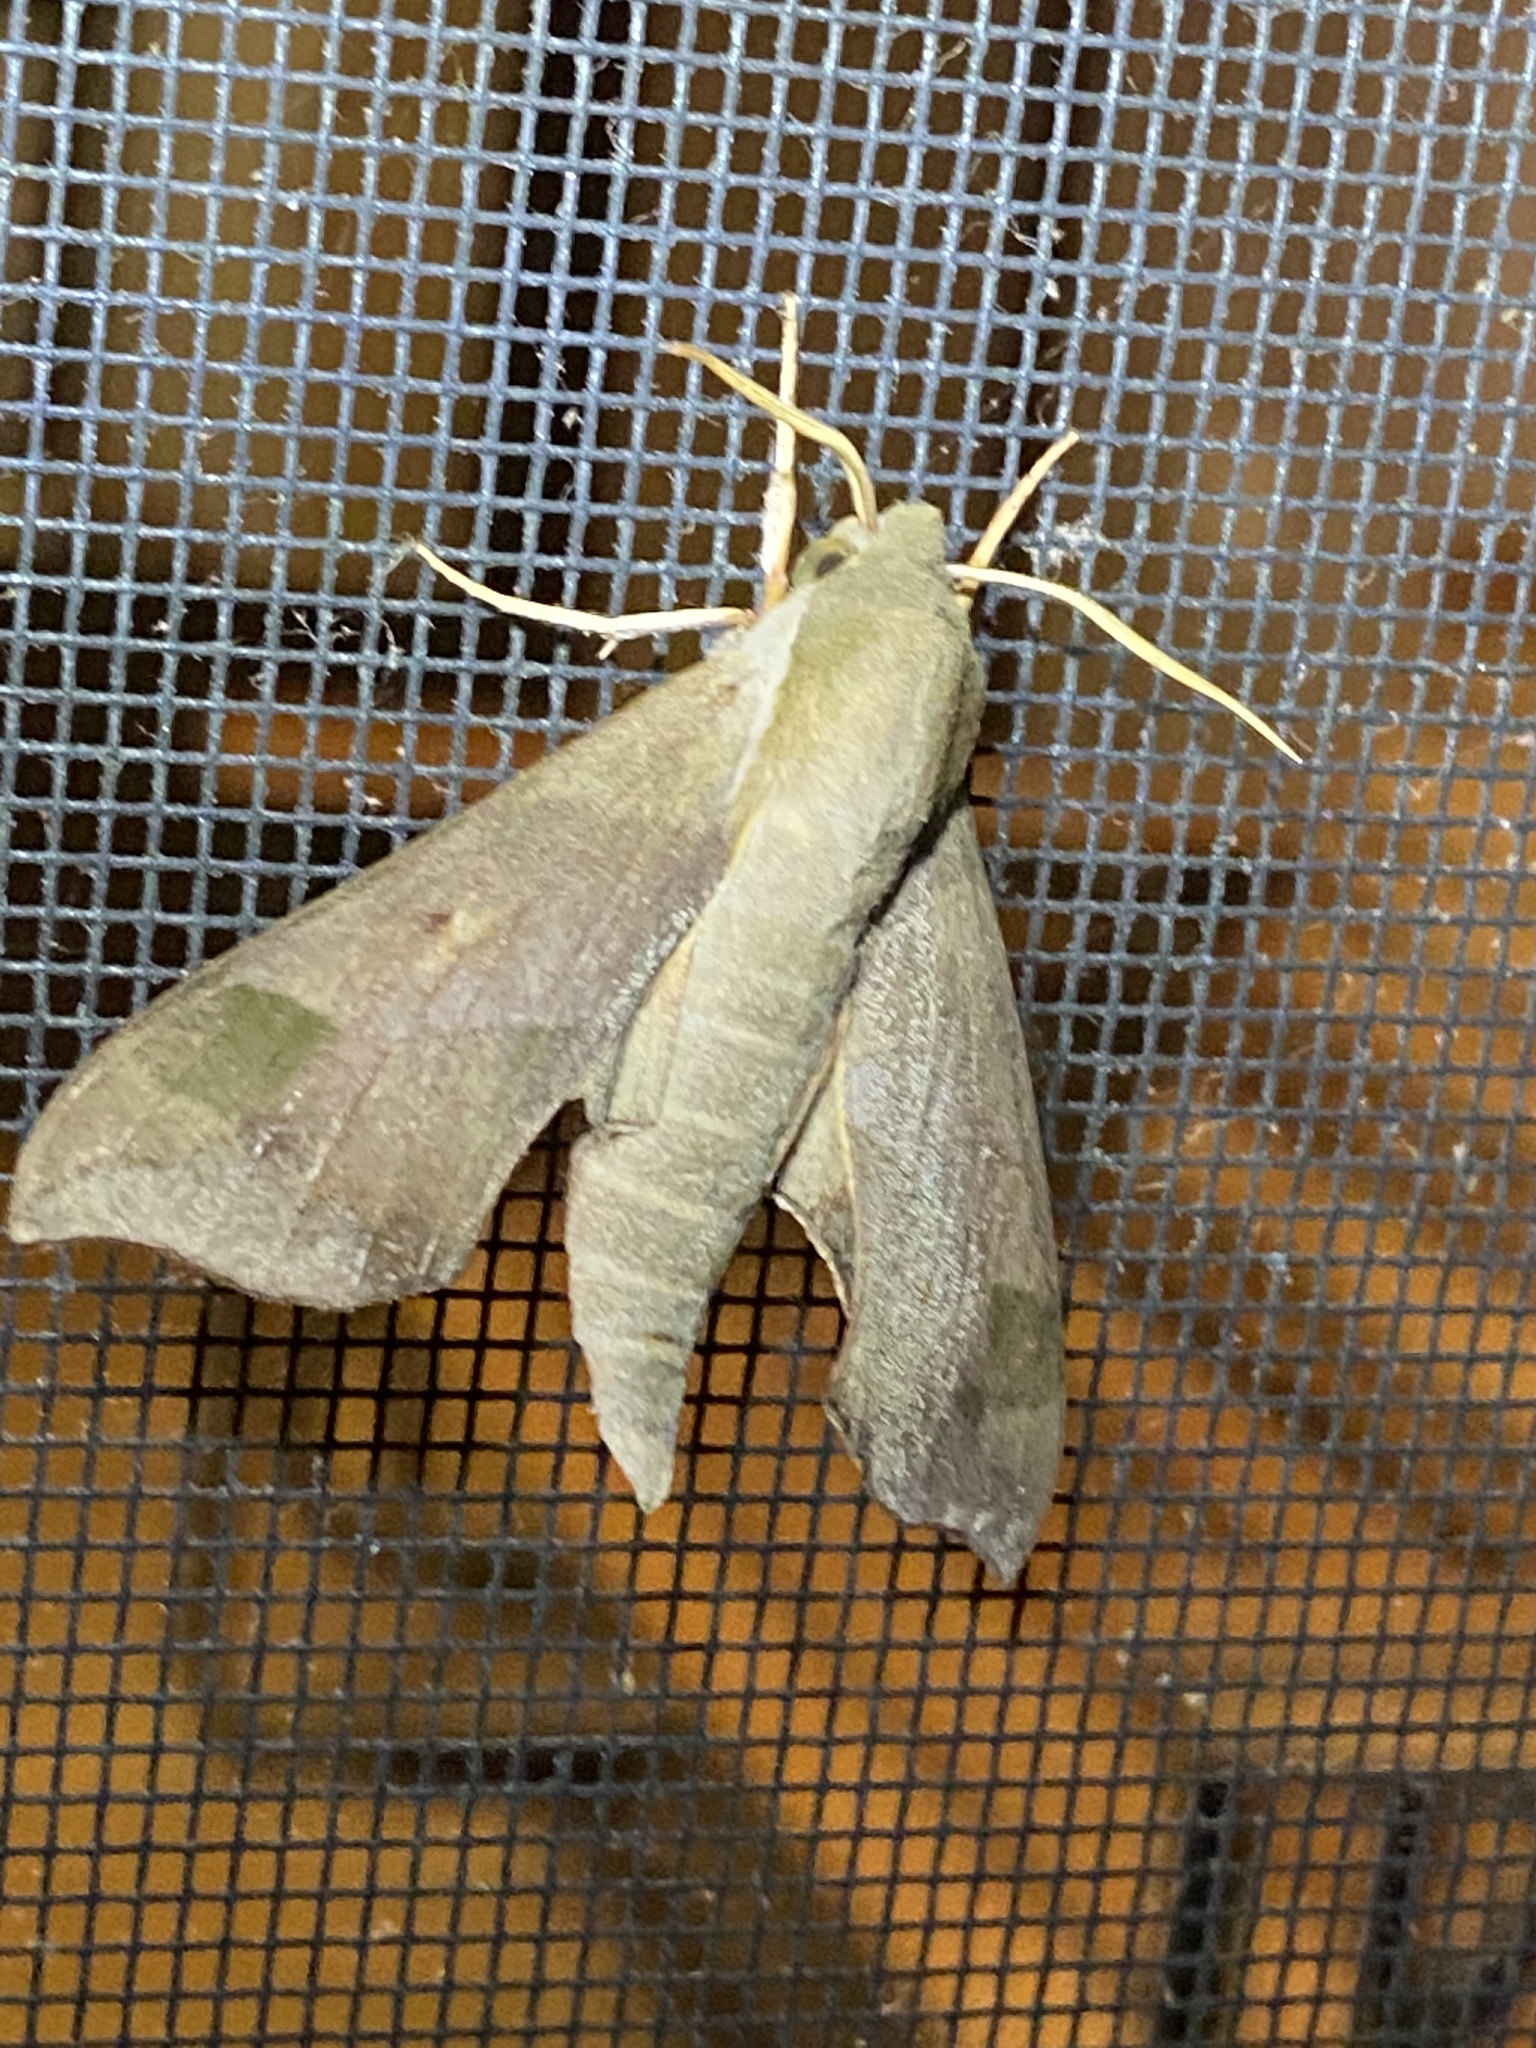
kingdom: Animalia
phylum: Arthropoda
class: Insecta
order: Lepidoptera
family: Sphingidae
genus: Darapsa
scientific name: Darapsa myron
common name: Hog sphinx
